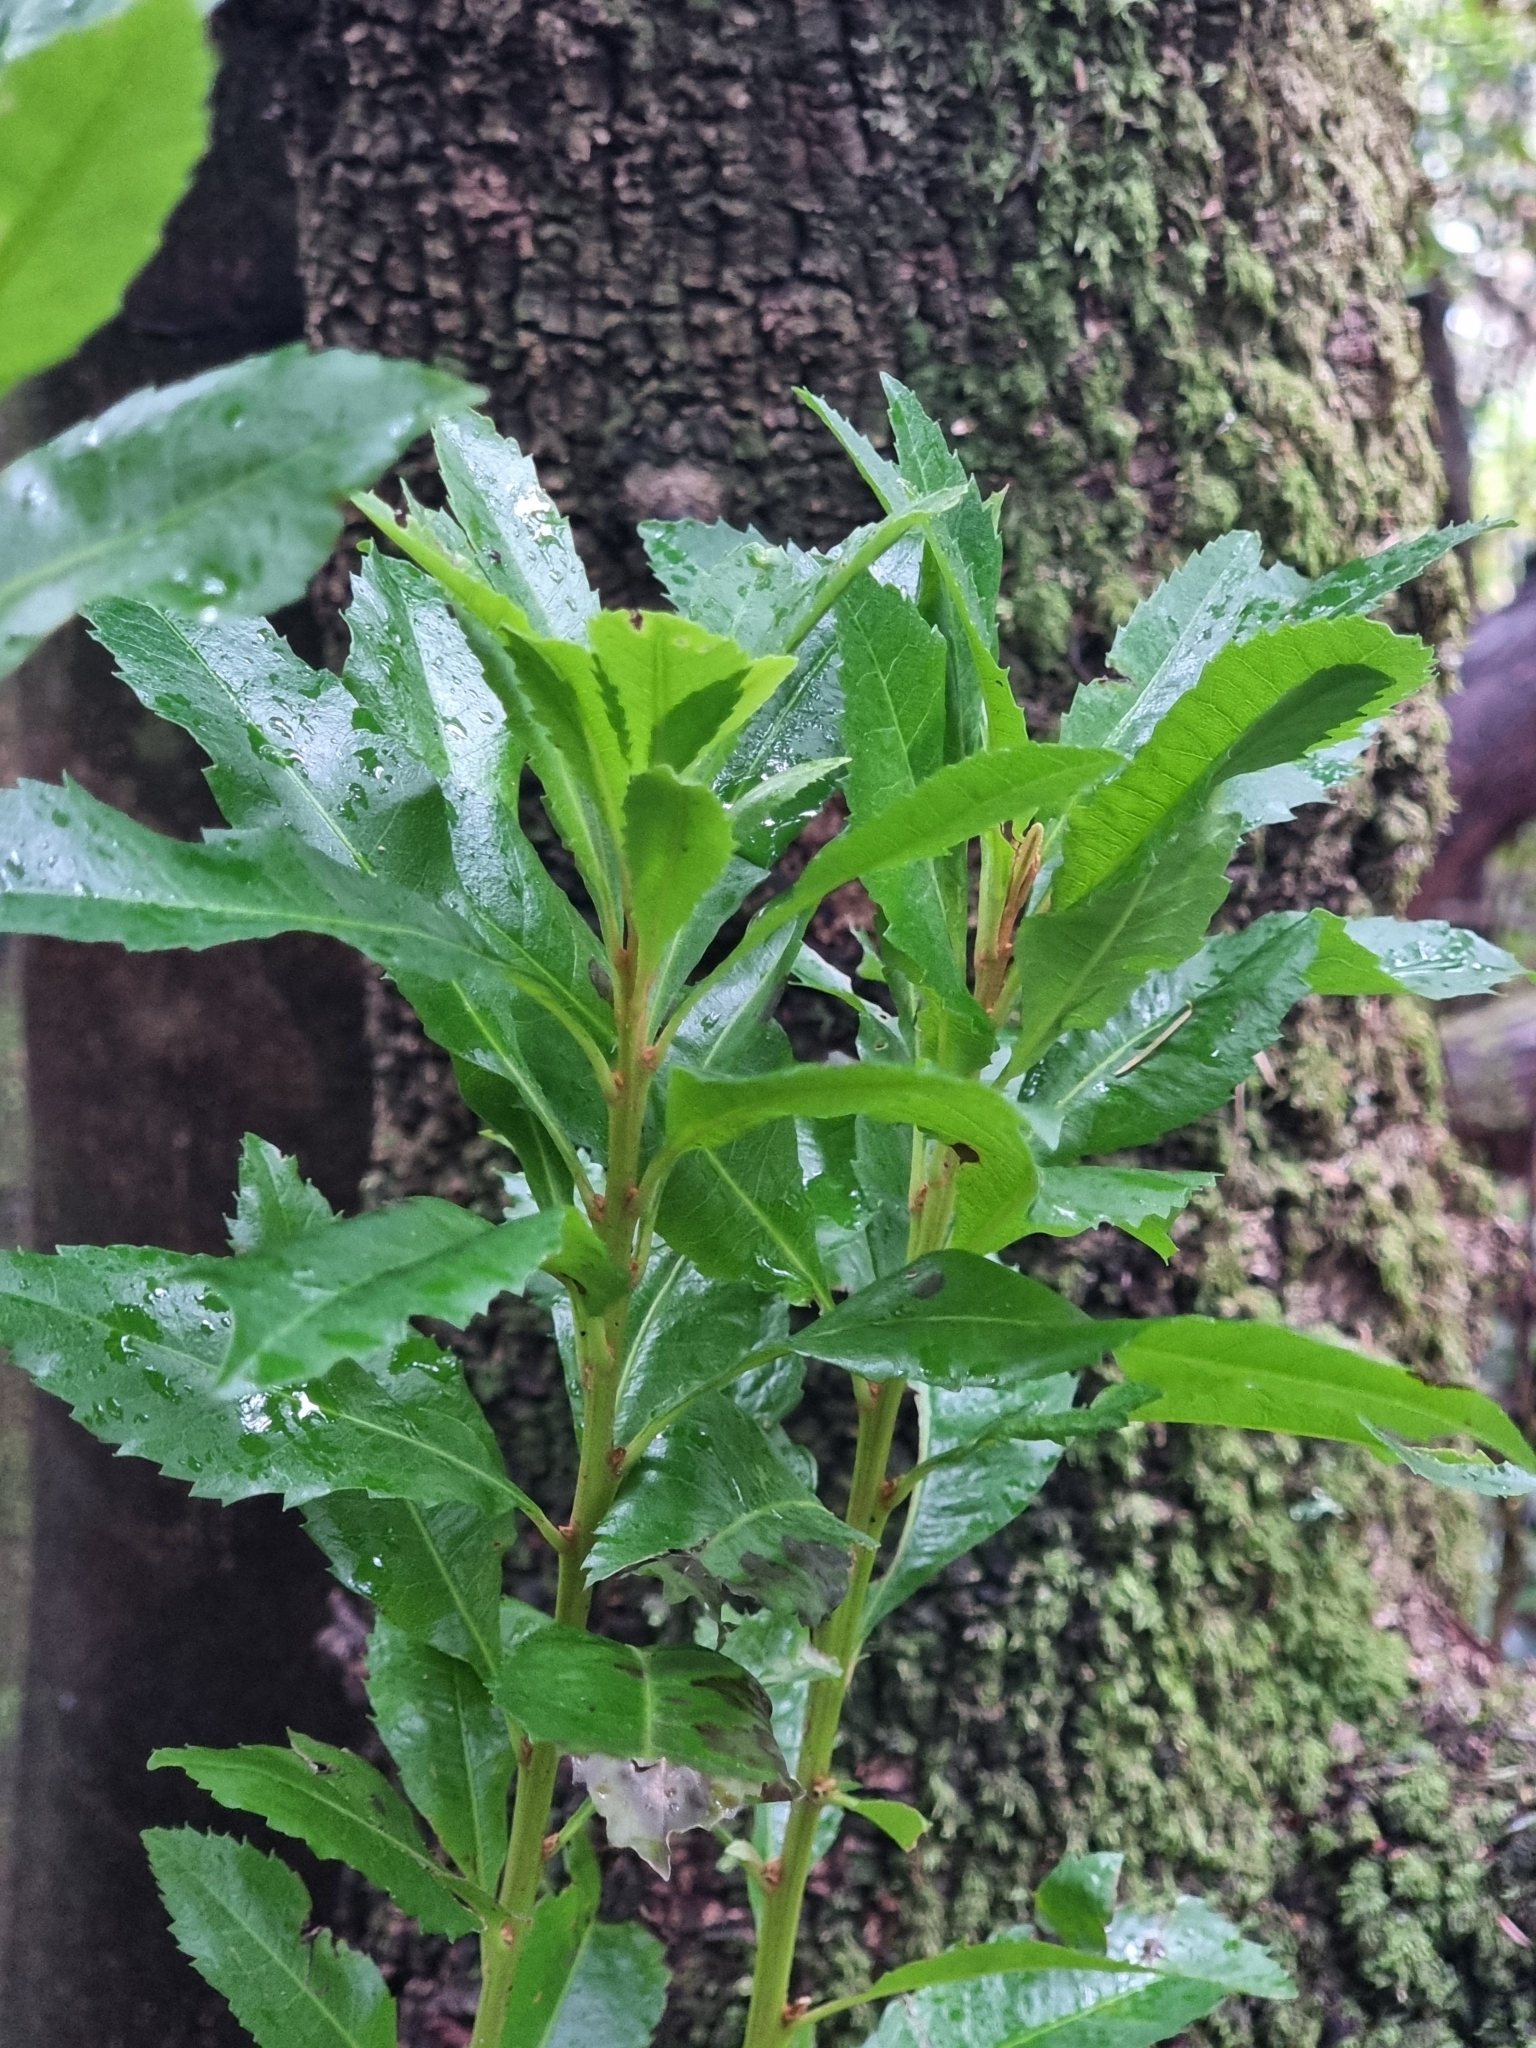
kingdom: Plantae
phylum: Tracheophyta
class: Magnoliopsida
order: Fagales
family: Myricaceae
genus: Morella
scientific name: Morella faya
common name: Firetree
